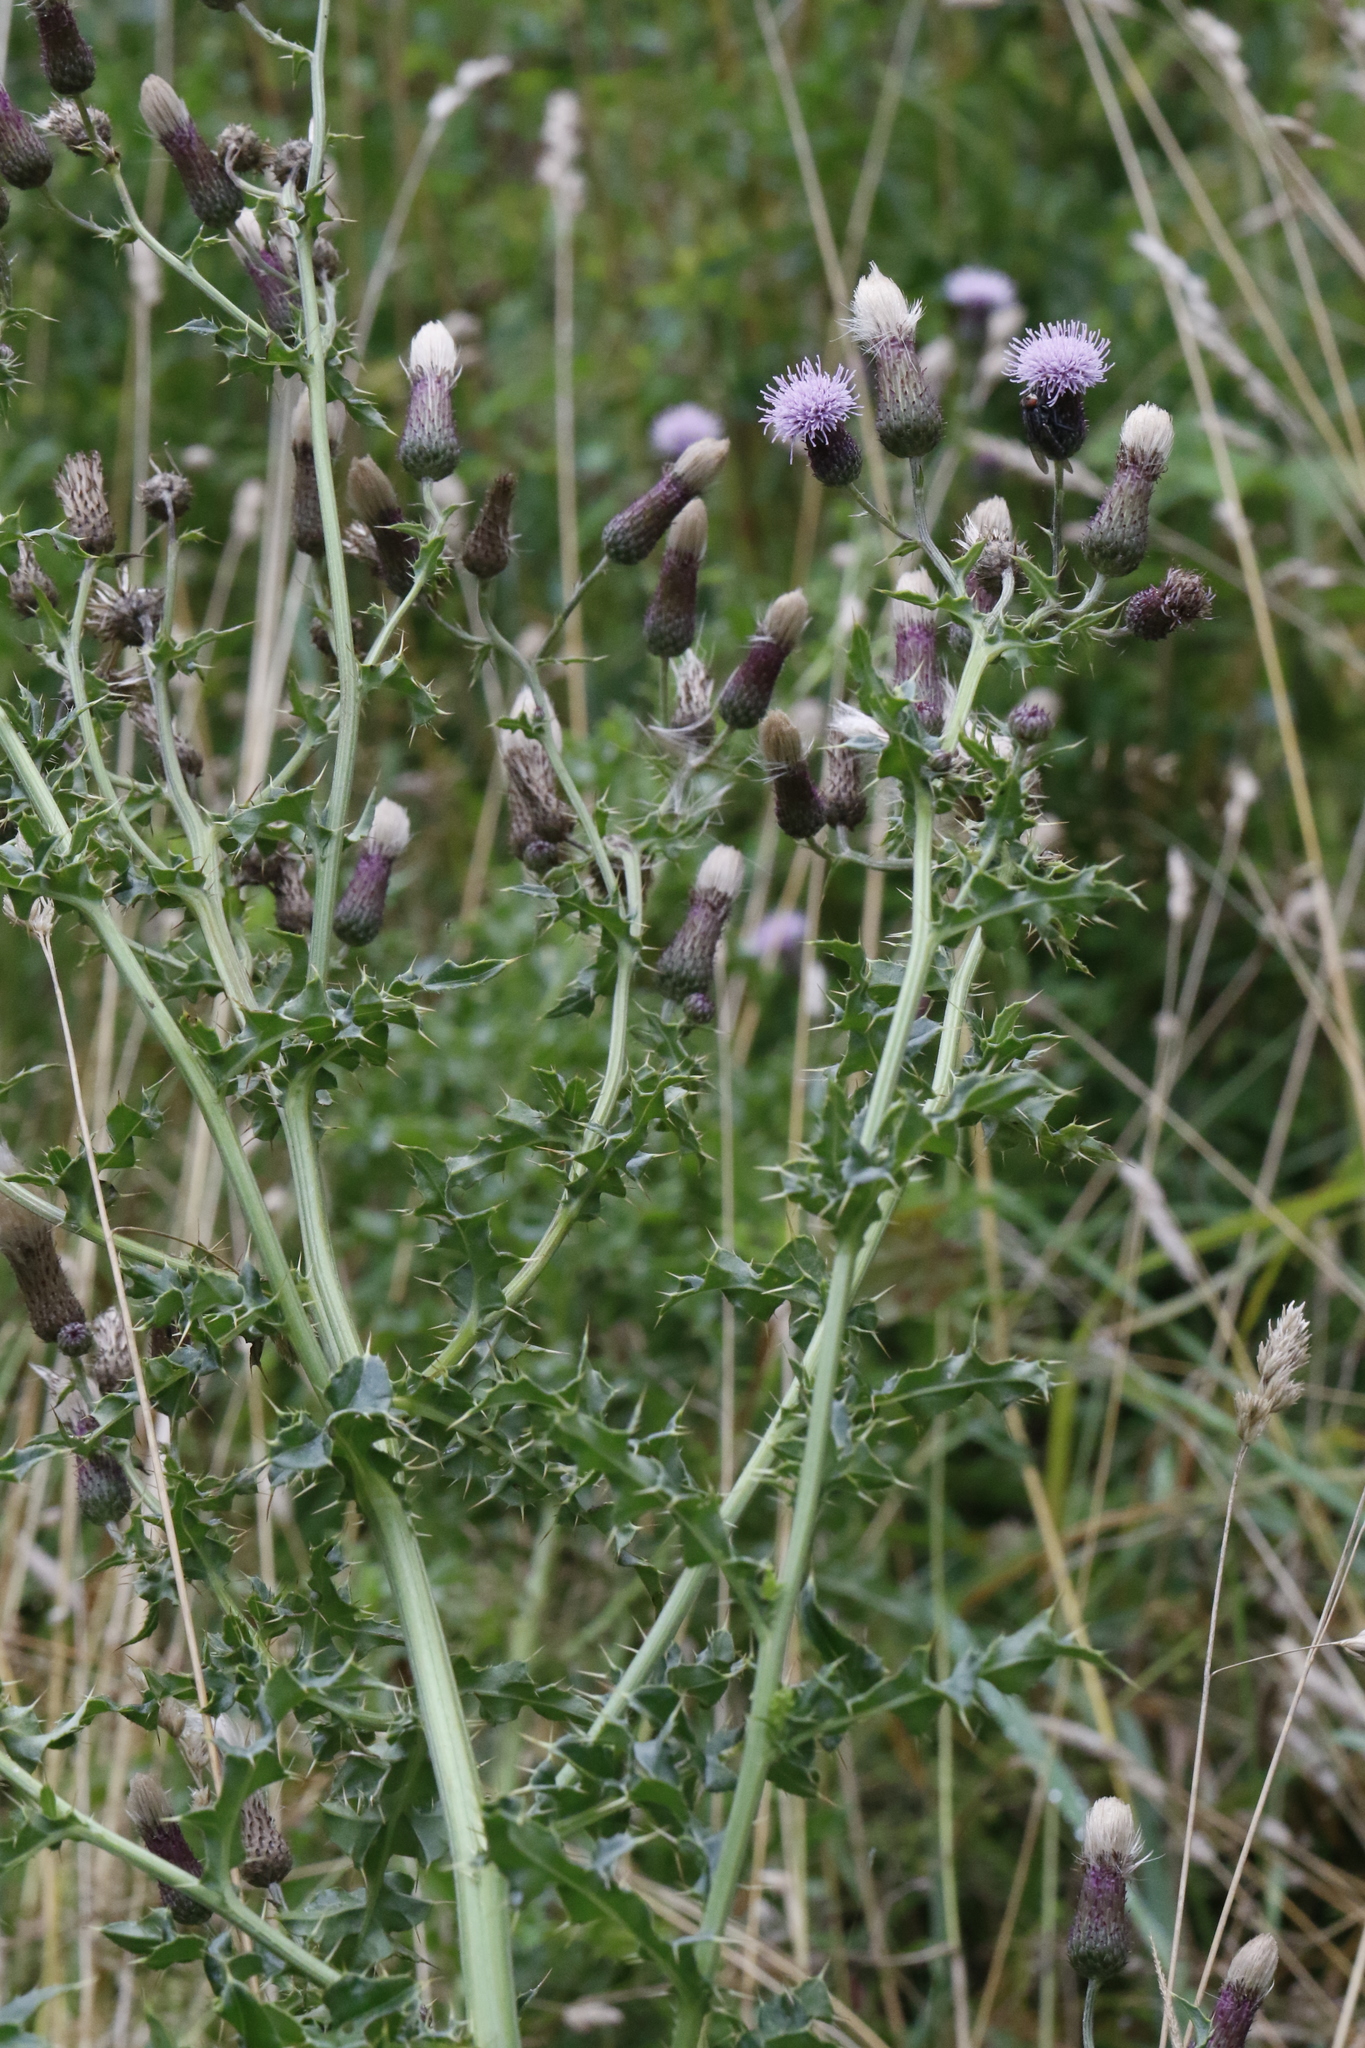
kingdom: Plantae
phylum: Tracheophyta
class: Magnoliopsida
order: Asterales
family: Asteraceae
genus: Cirsium
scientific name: Cirsium arvense
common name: Creeping thistle
